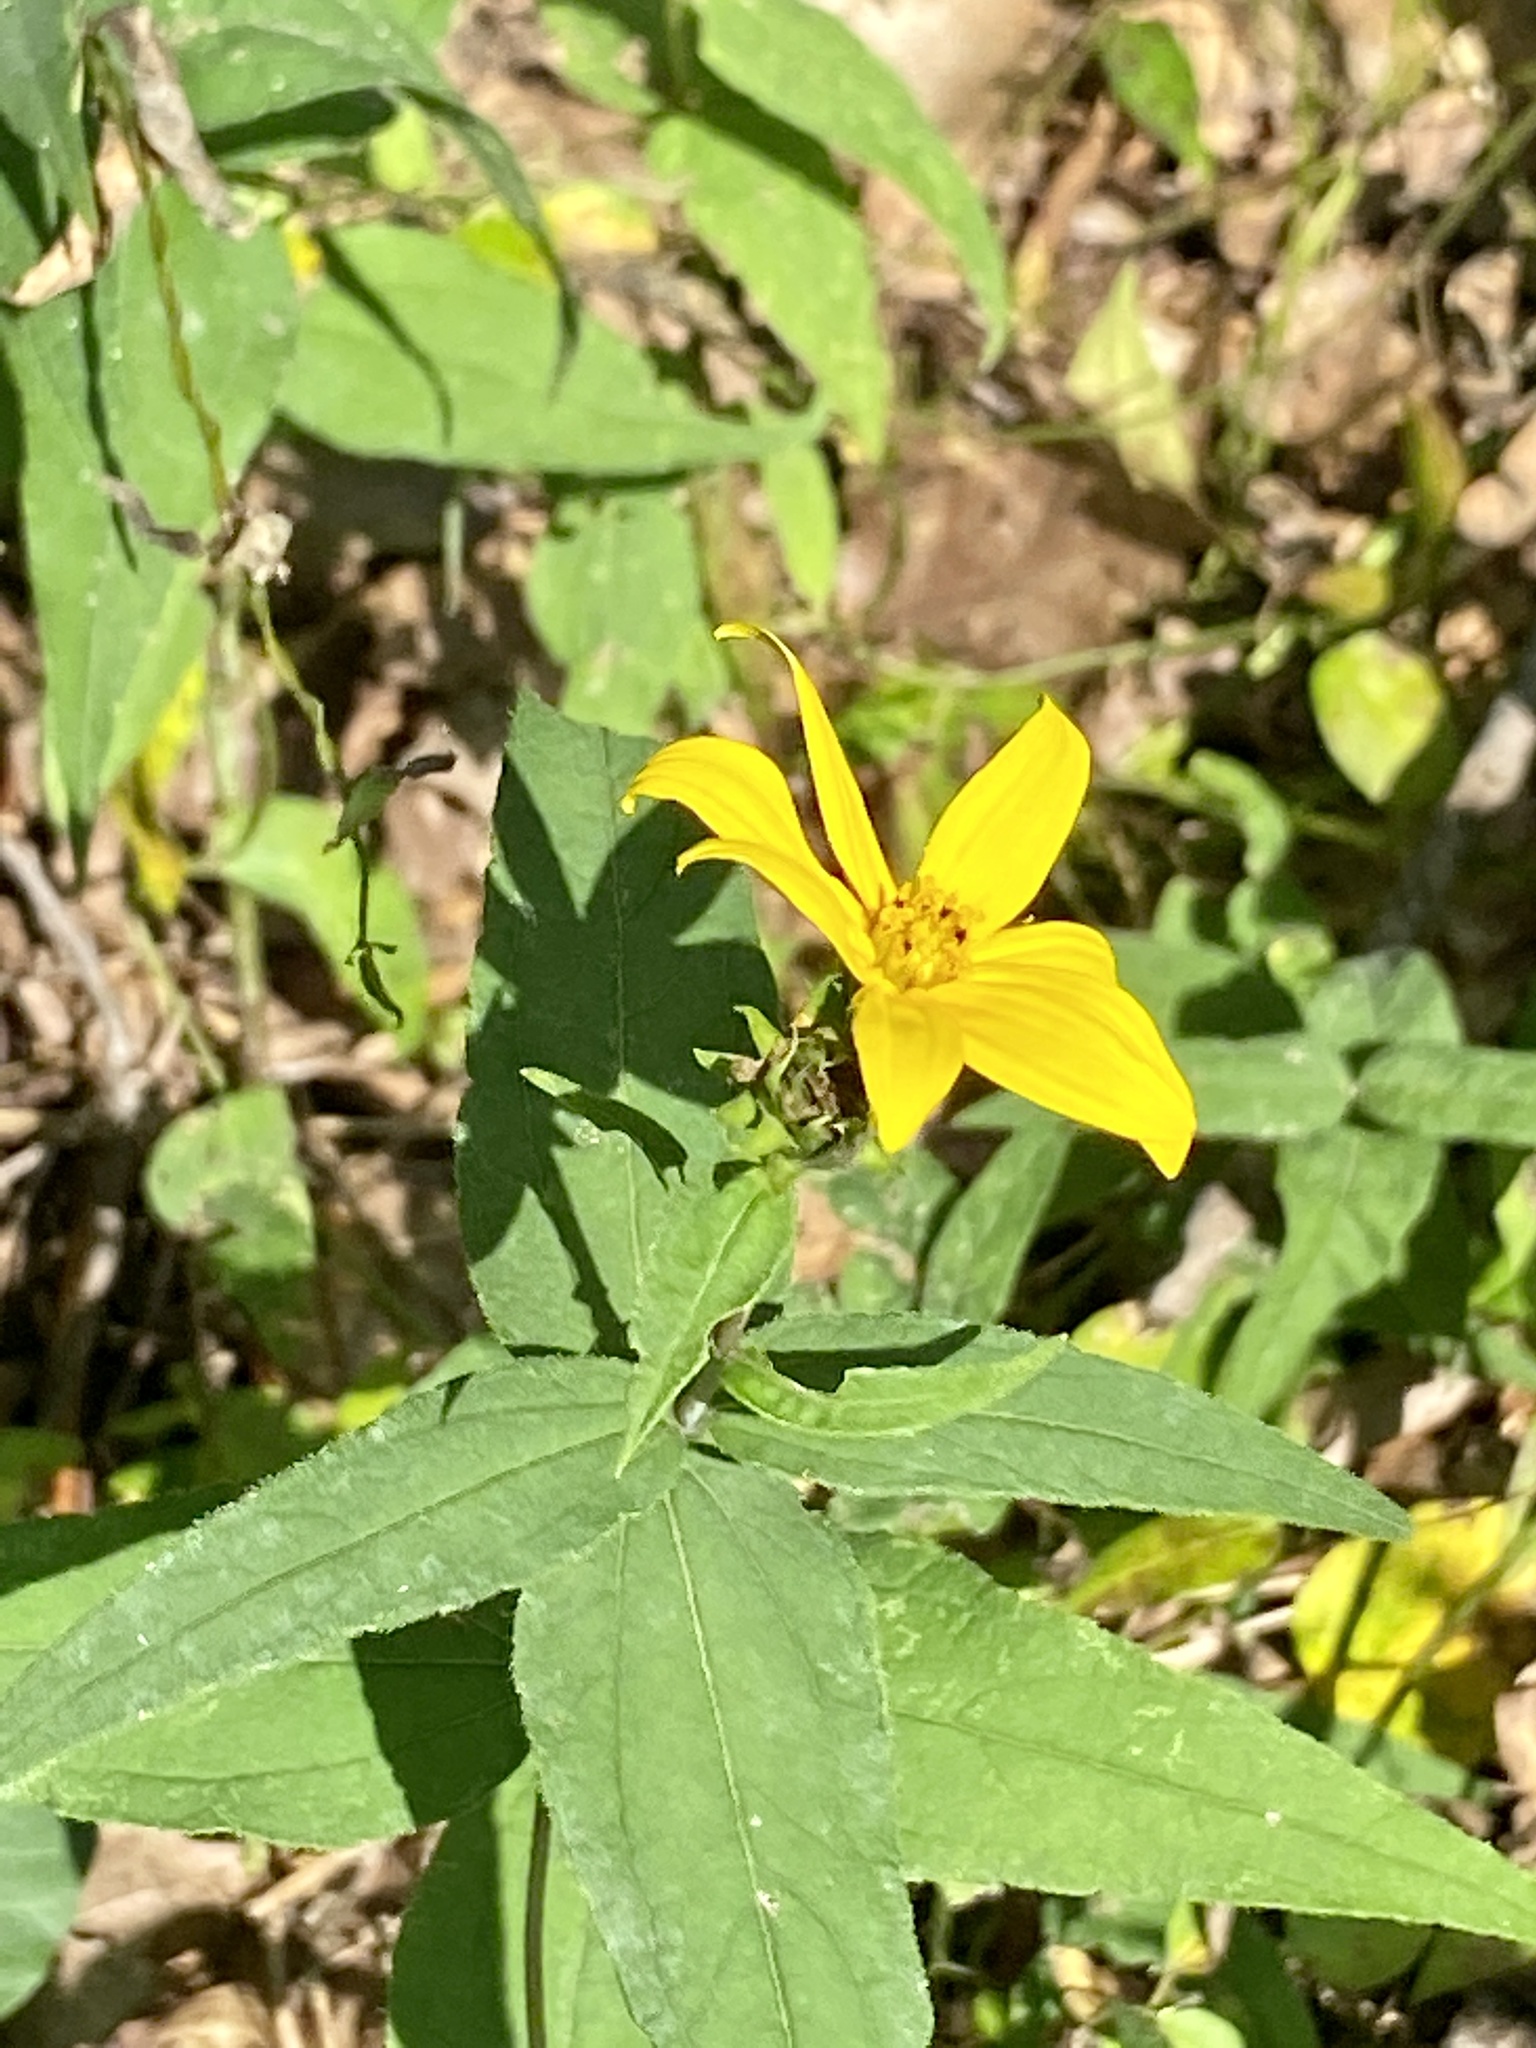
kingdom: Plantae
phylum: Tracheophyta
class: Magnoliopsida
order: Asterales
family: Asteraceae
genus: Helianthus
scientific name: Helianthus divaricatus
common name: Divergent sunflower
